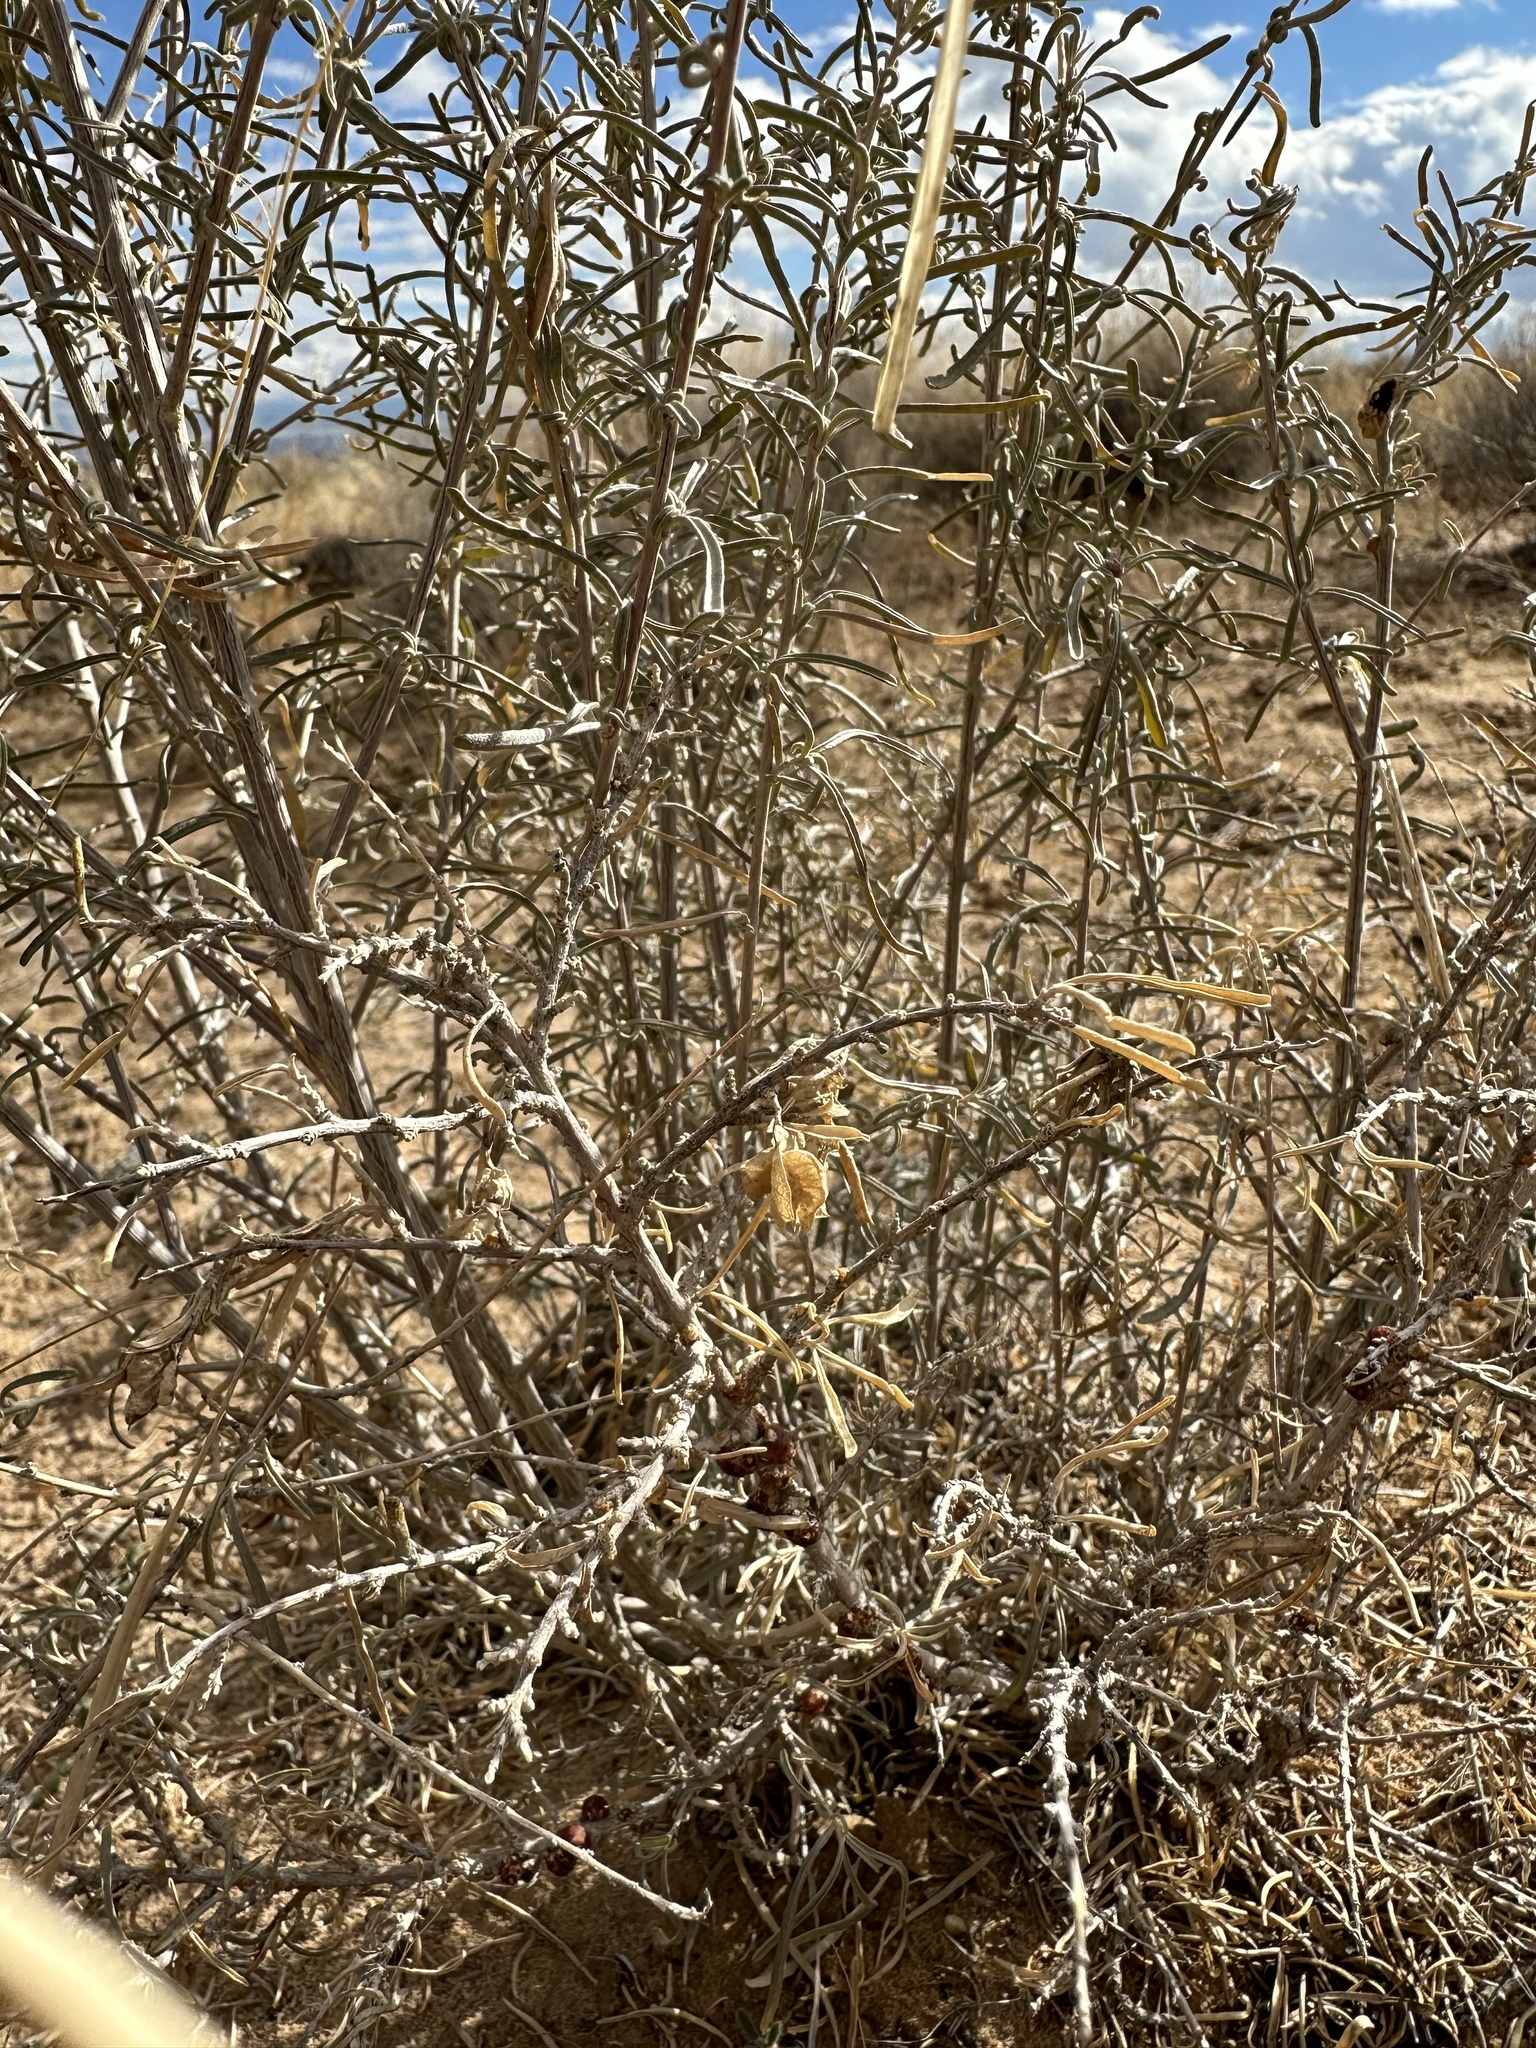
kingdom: Plantae
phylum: Tracheophyta
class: Magnoliopsida
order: Caryophyllales
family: Amaranthaceae
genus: Atriplex
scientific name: Atriplex canescens
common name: Four-wing saltbush
